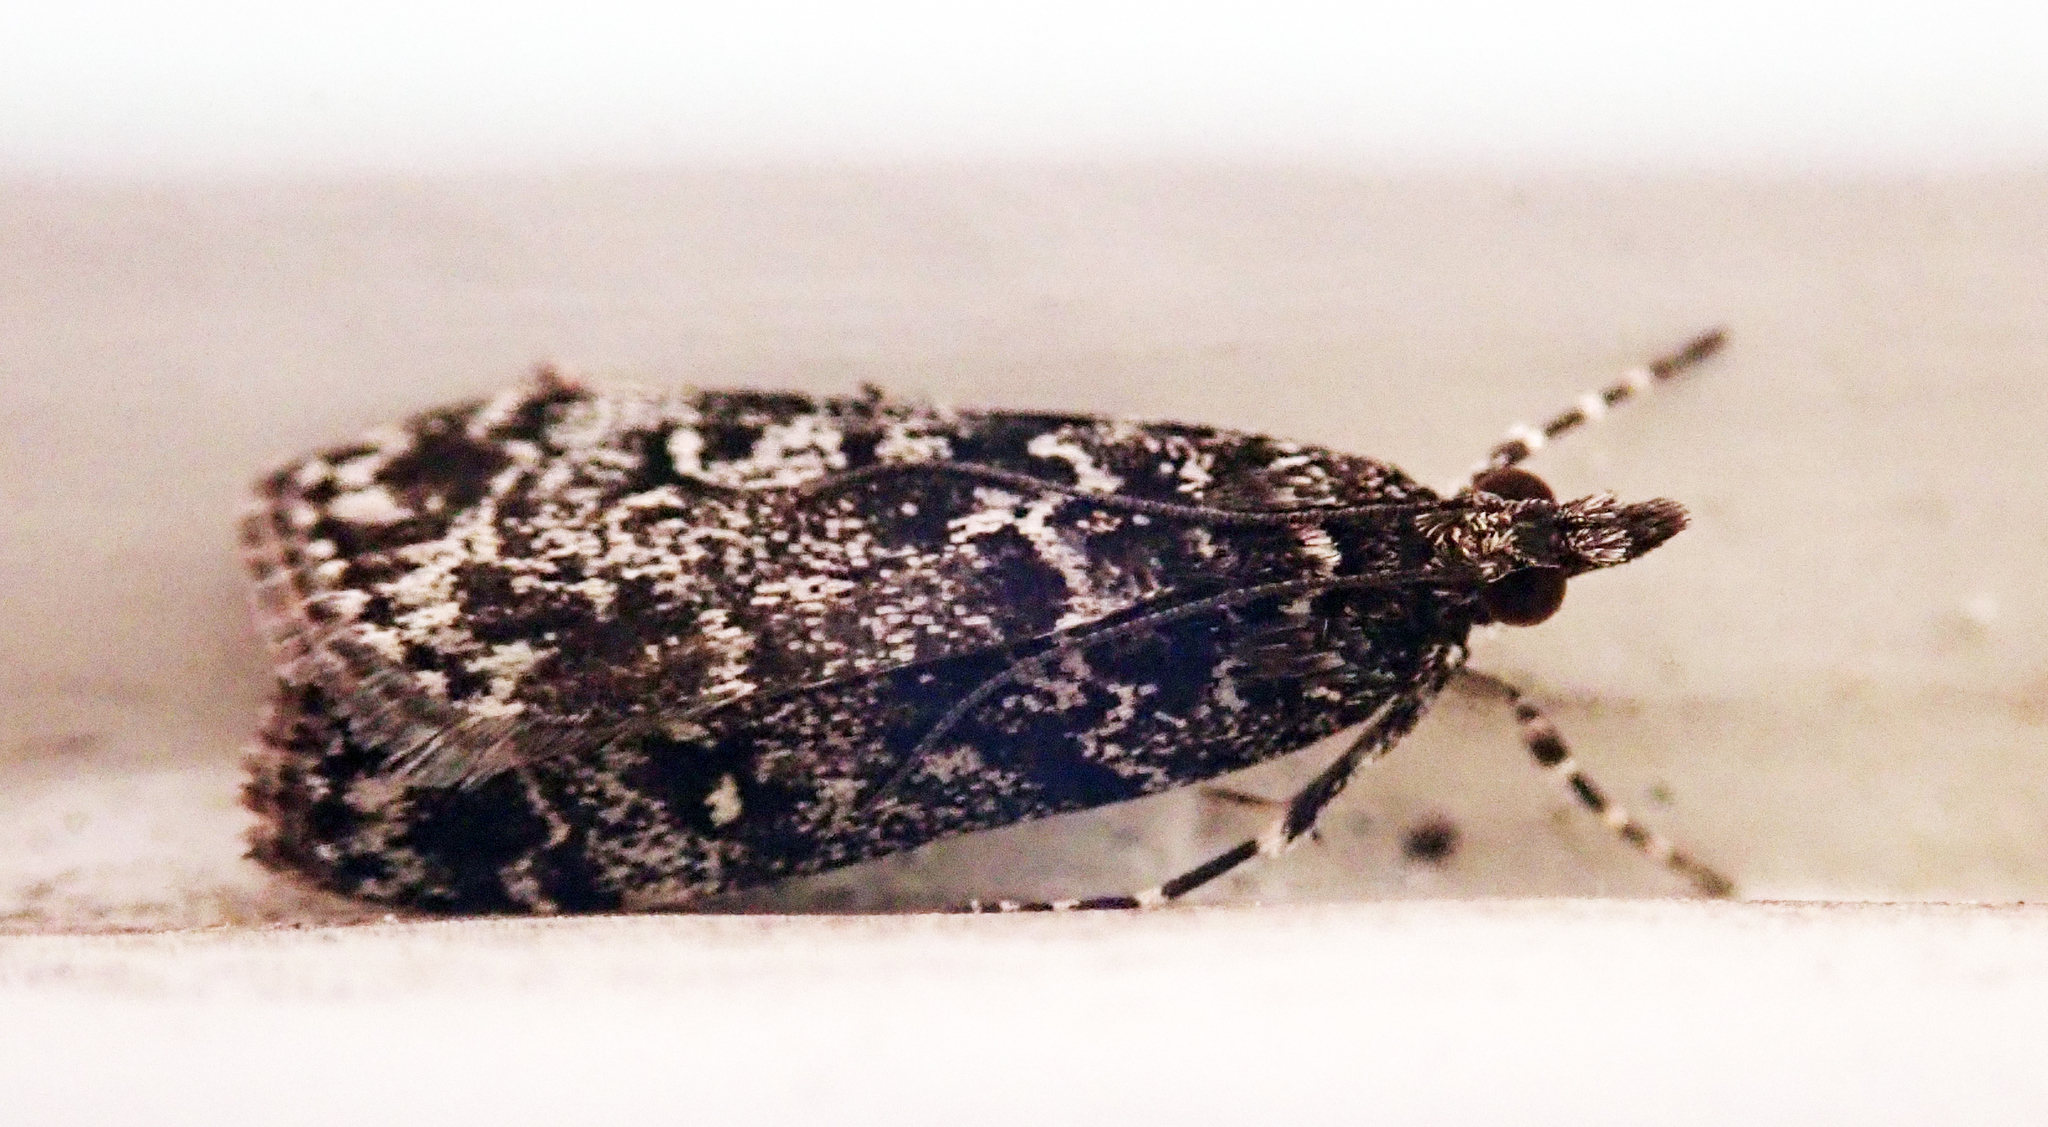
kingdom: Animalia
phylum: Arthropoda
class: Insecta
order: Lepidoptera
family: Crambidae
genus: Eudonia
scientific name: Eudonia philerga
